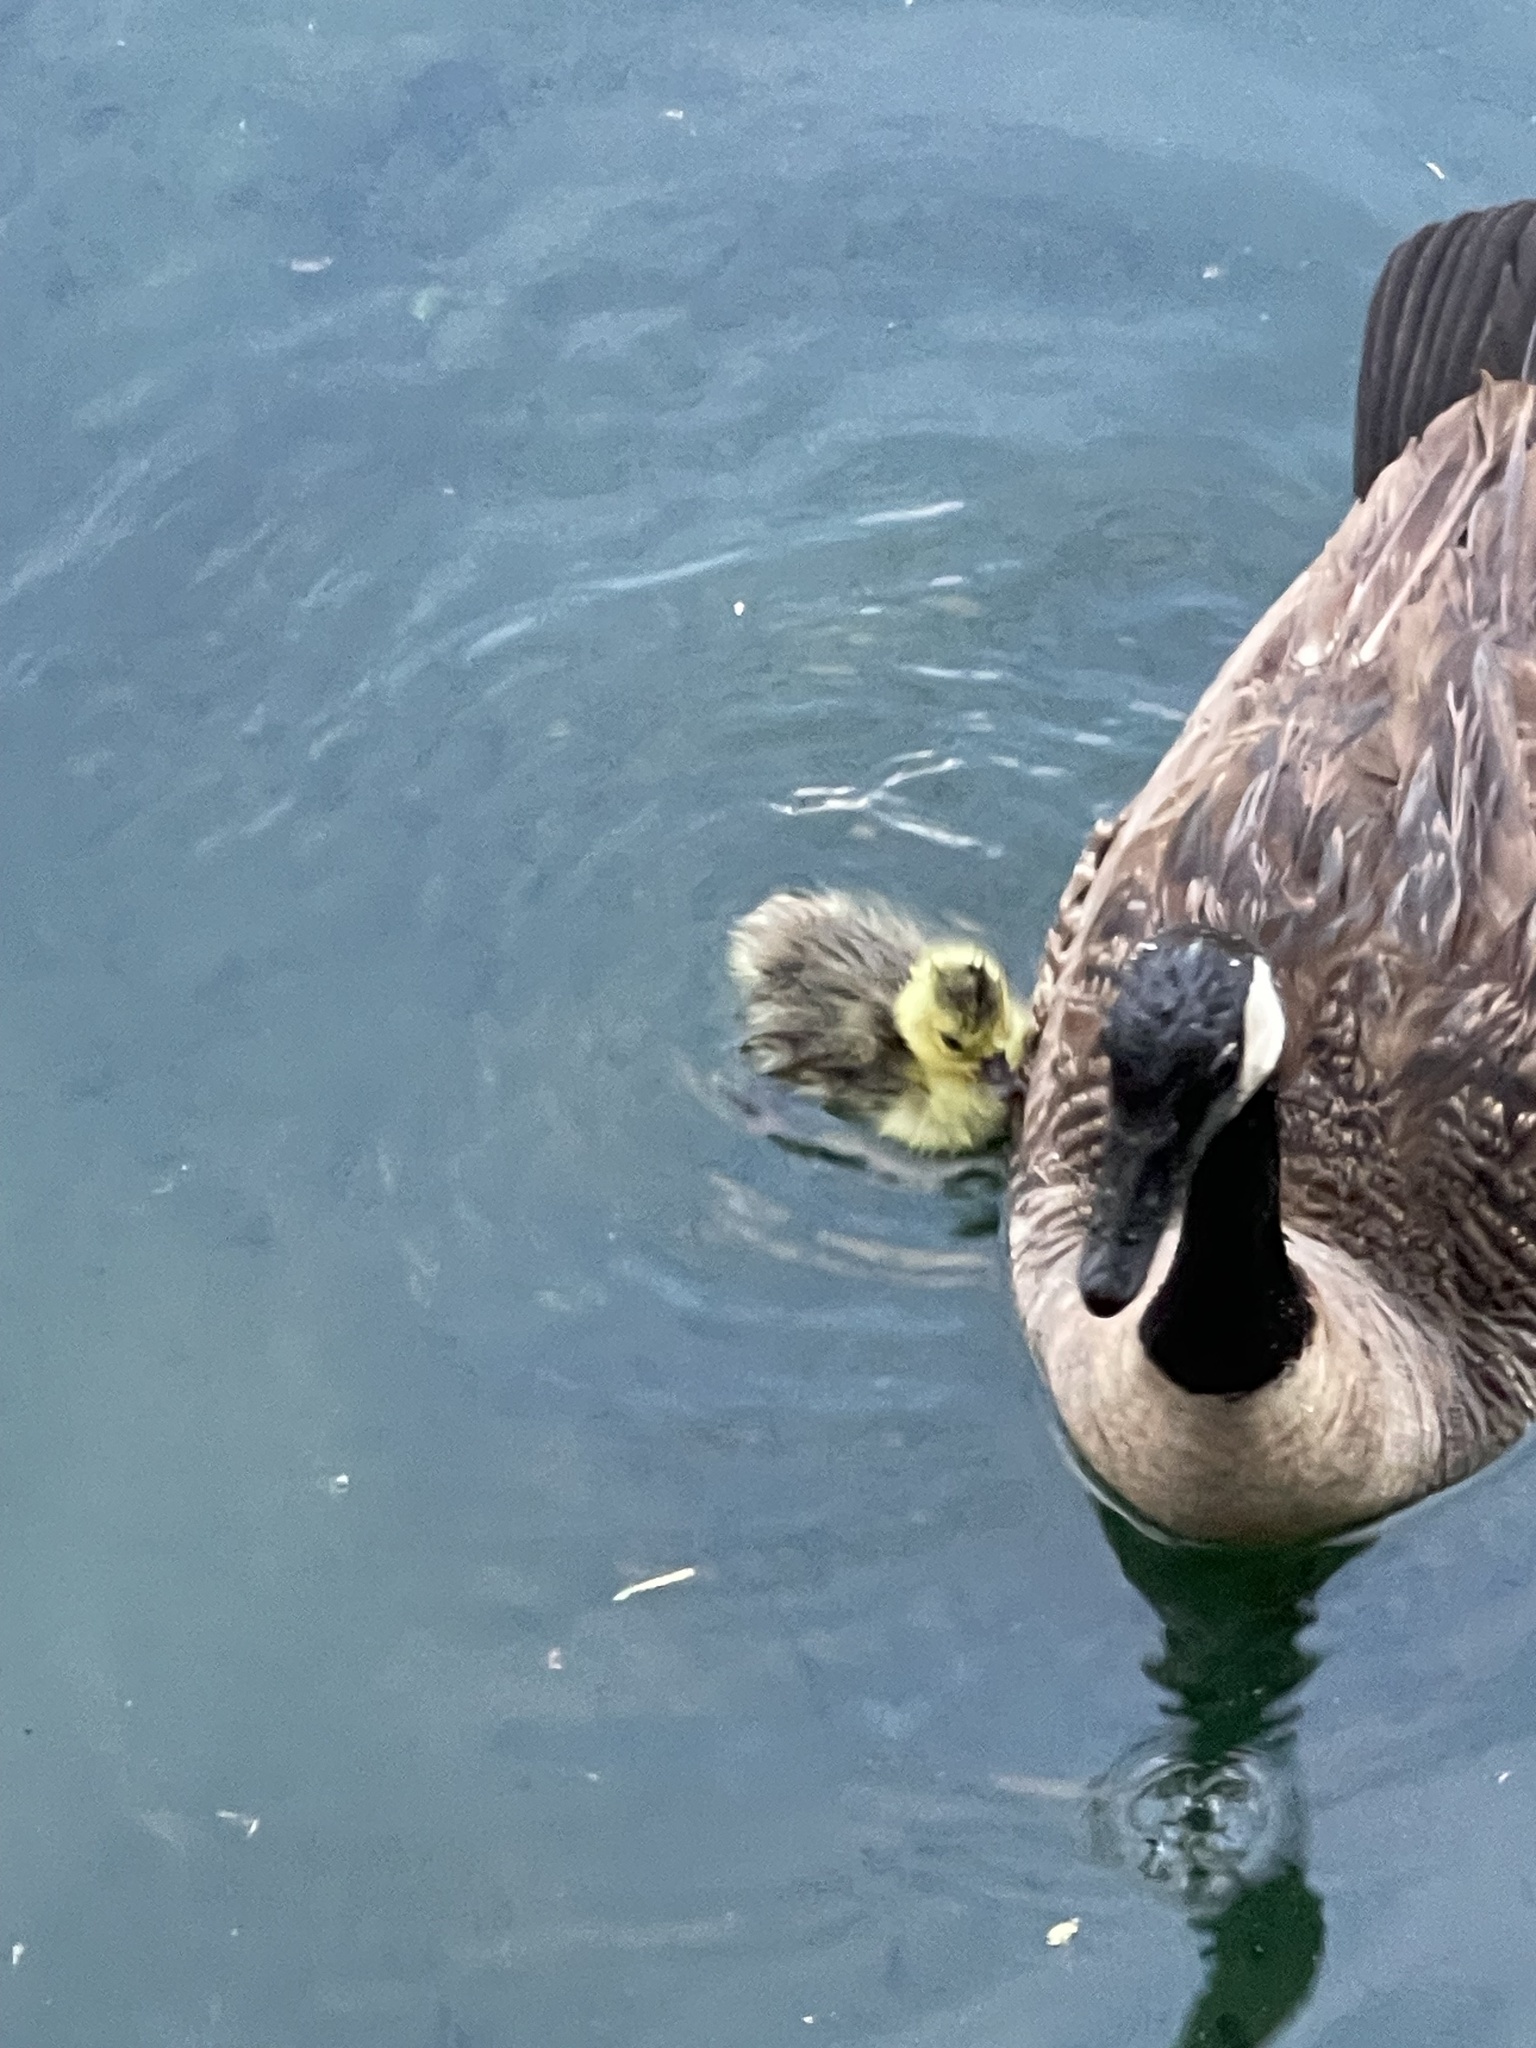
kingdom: Animalia
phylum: Chordata
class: Aves
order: Anseriformes
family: Anatidae
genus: Branta
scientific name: Branta canadensis
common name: Canada goose
